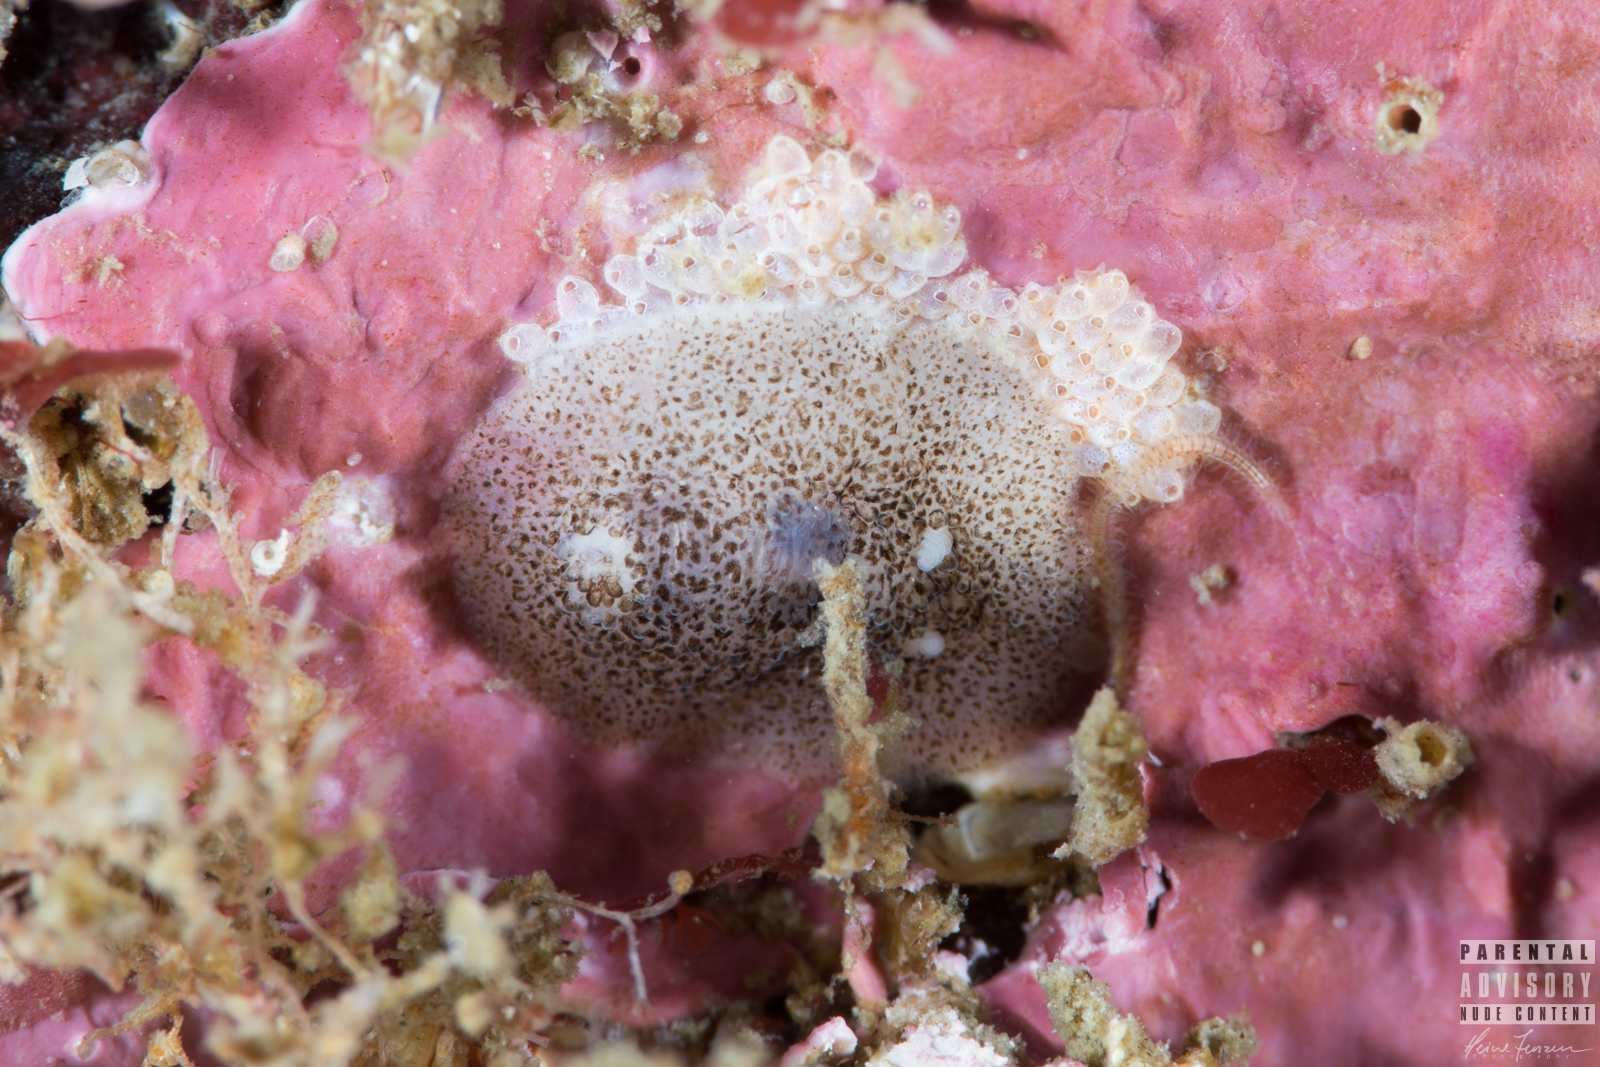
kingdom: Animalia
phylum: Mollusca
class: Gastropoda
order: Nudibranchia
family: Onchidorididae
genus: Atalodoris
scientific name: Atalodoris pusilla
